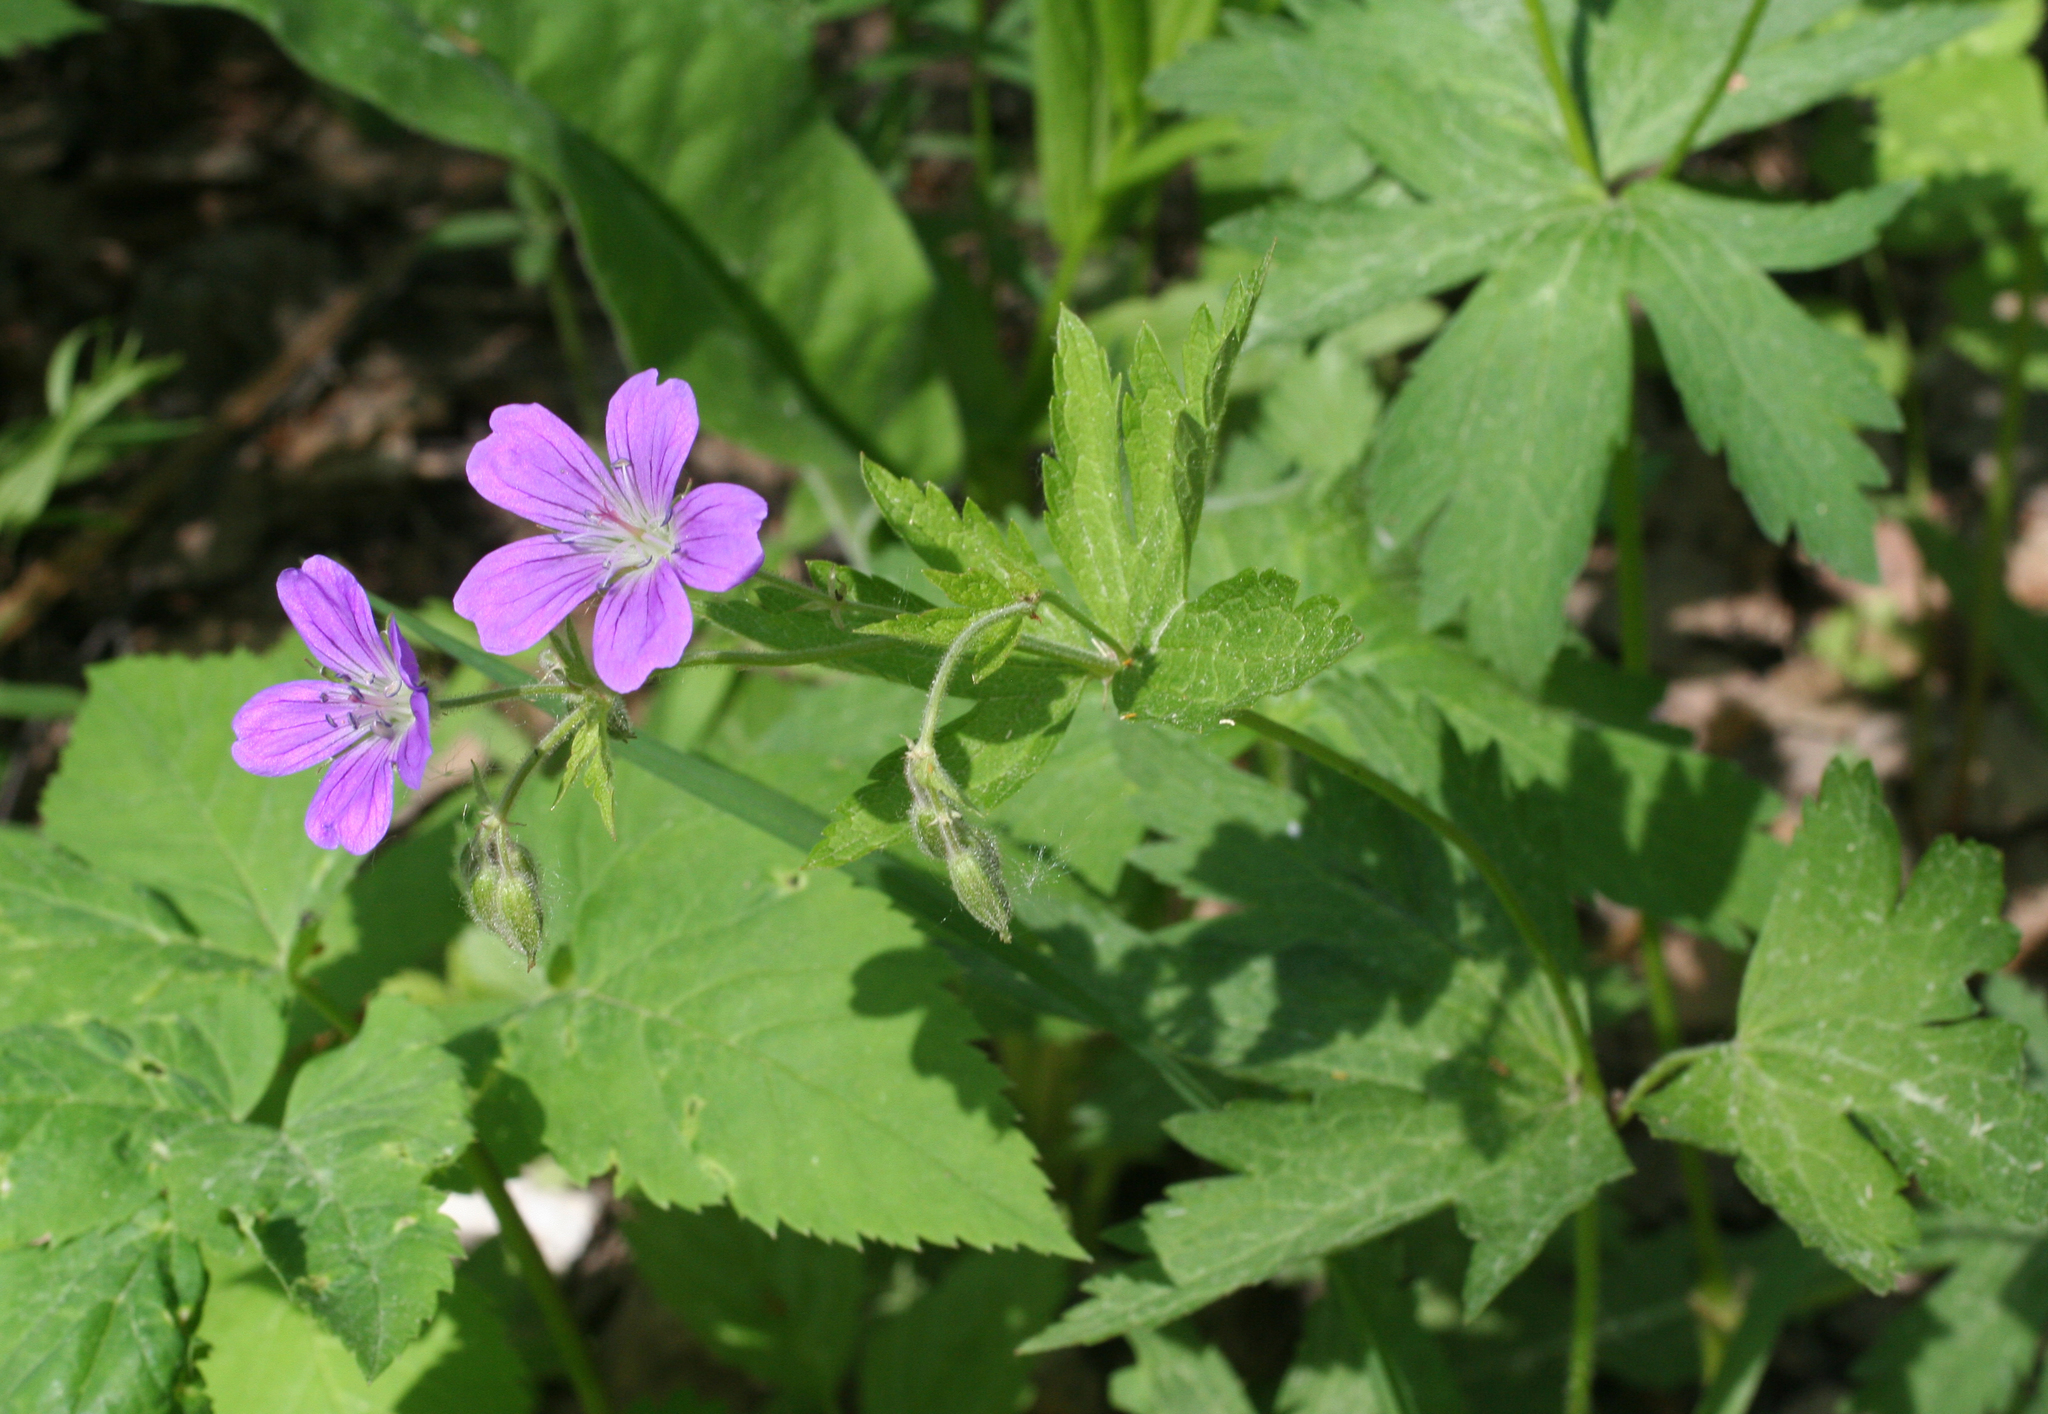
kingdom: Plantae
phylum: Tracheophyta
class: Magnoliopsida
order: Geraniales
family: Geraniaceae
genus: Geranium
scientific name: Geranium sylvaticum
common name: Wood crane's-bill
